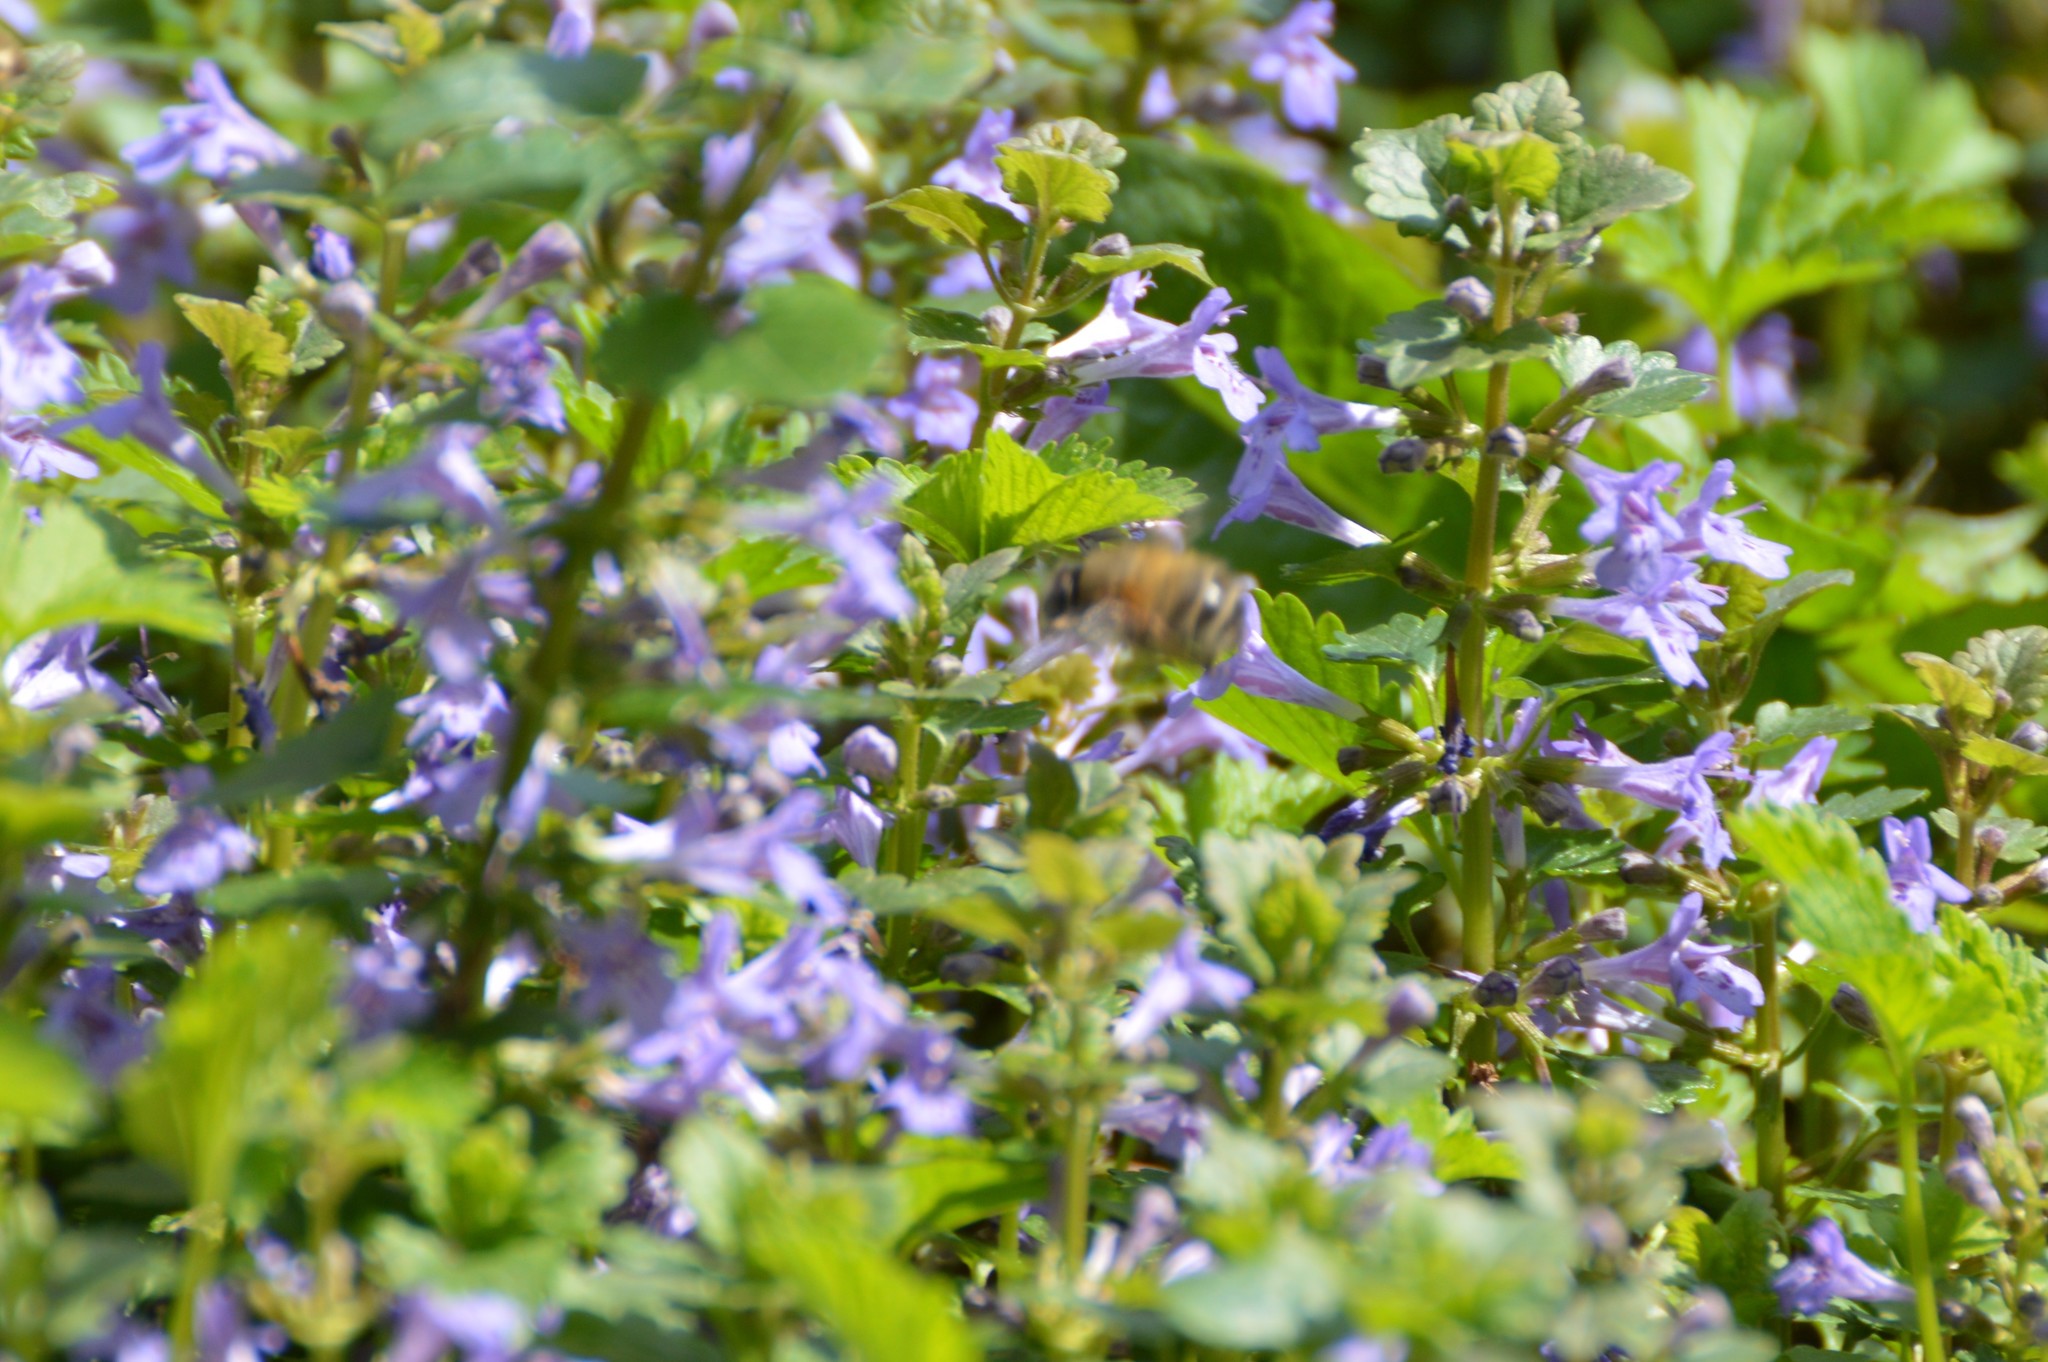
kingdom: Animalia
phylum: Arthropoda
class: Insecta
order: Hymenoptera
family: Apidae
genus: Anthophora
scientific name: Anthophora plumipes
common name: Hairy-footed flower bee
